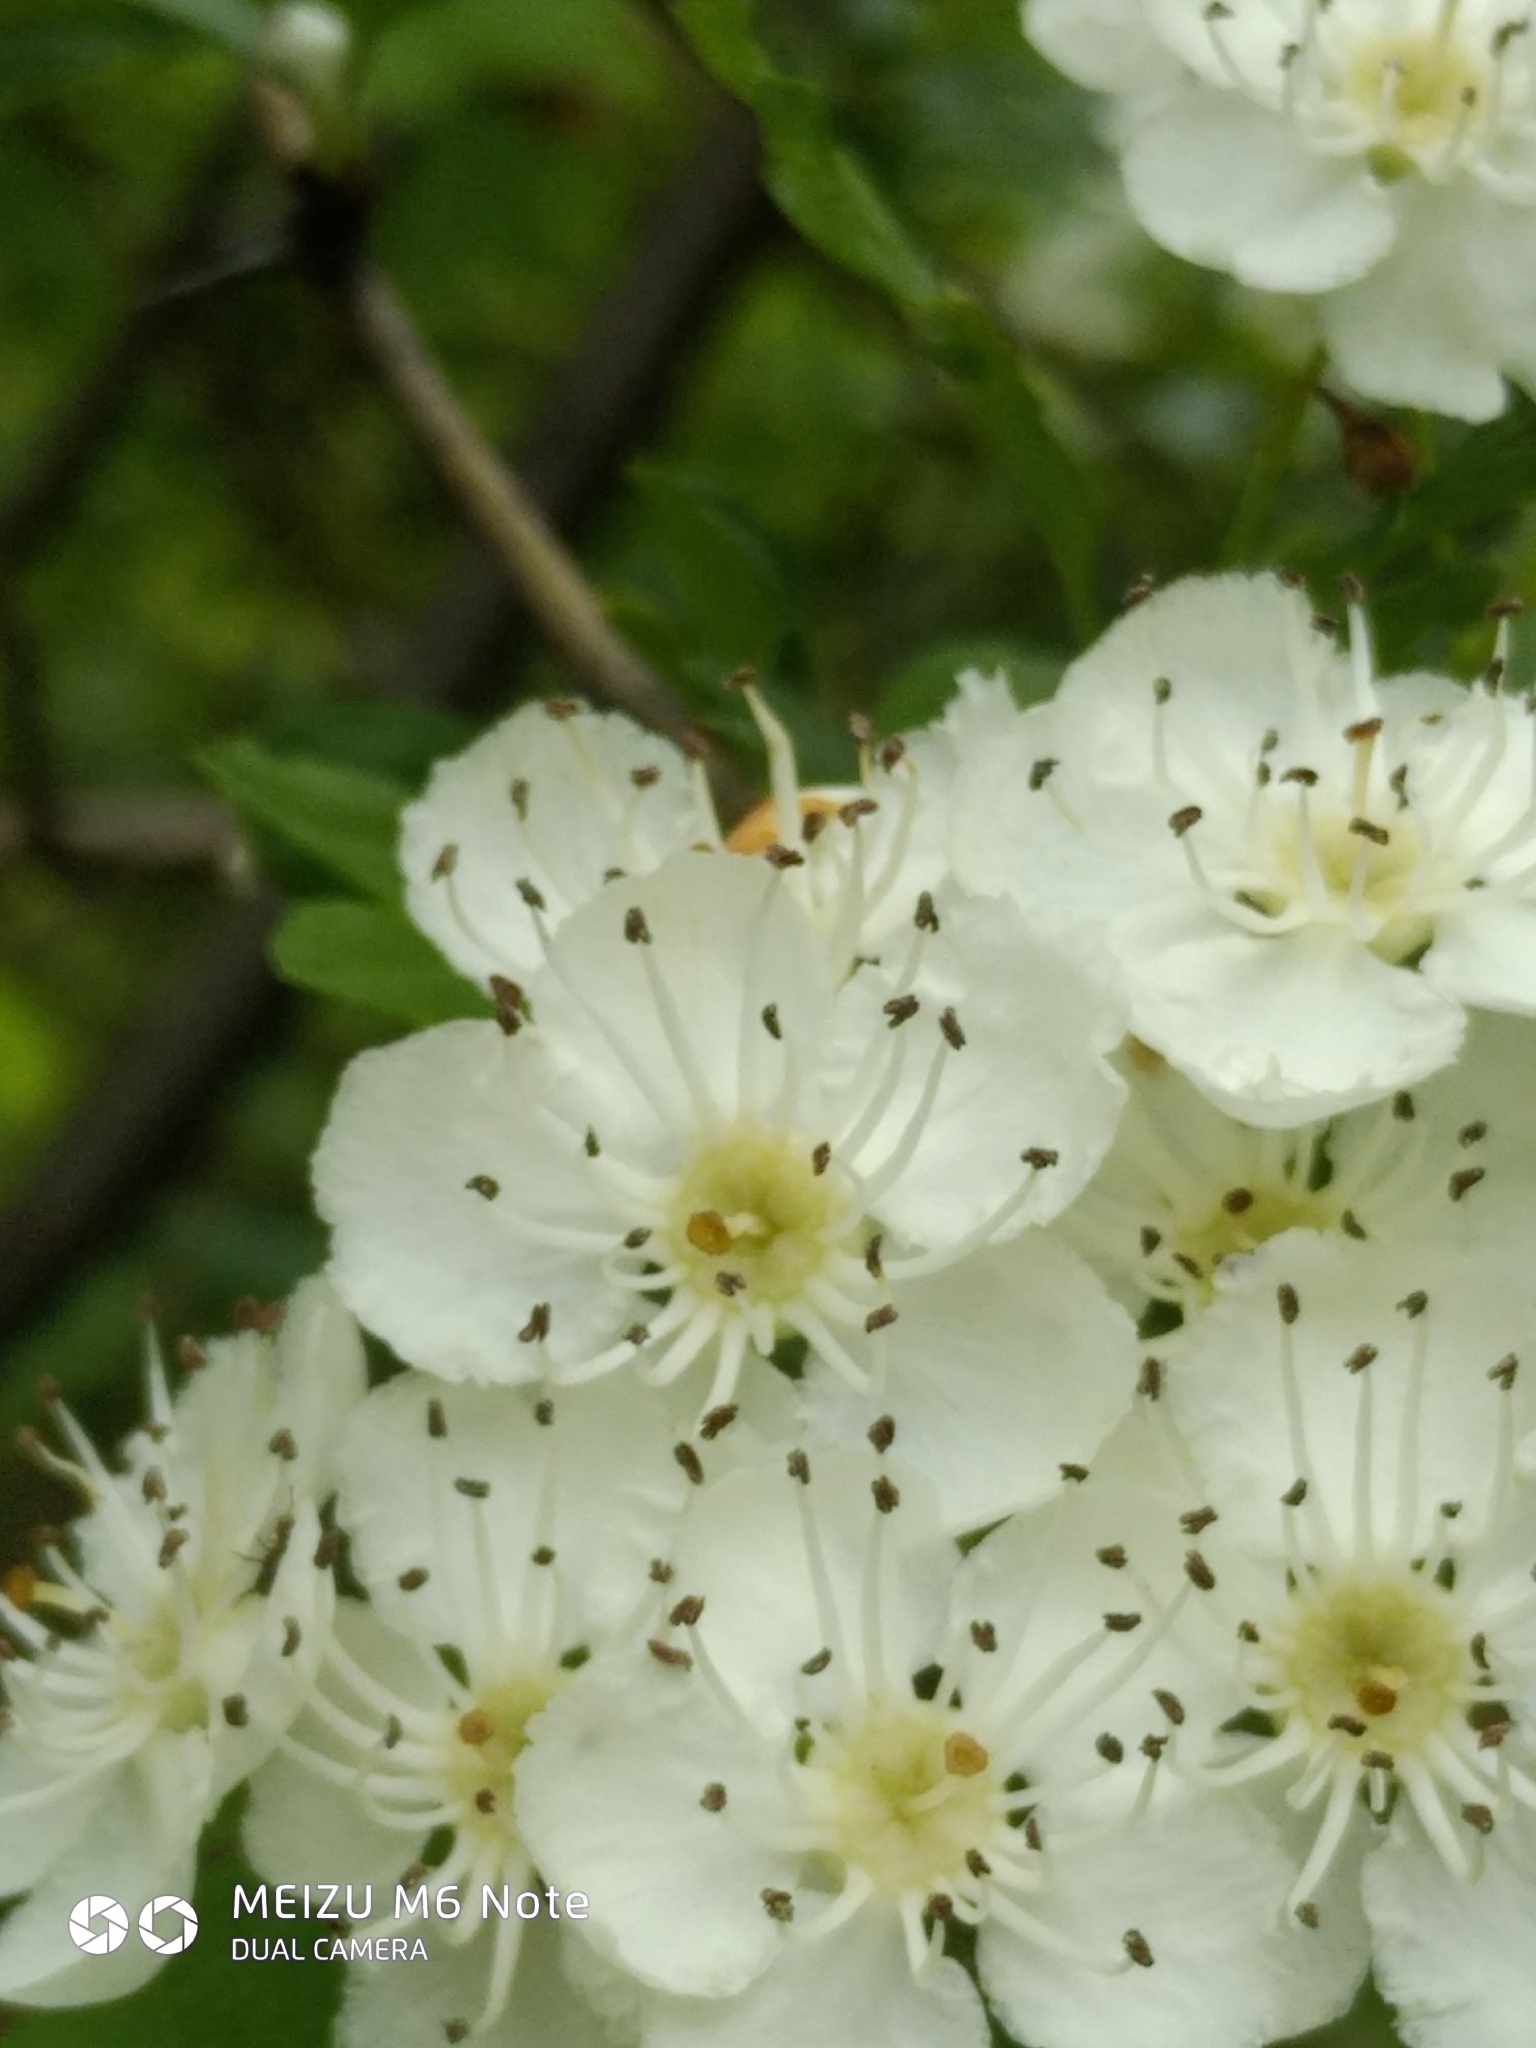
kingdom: Plantae
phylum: Tracheophyta
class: Magnoliopsida
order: Rosales
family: Rosaceae
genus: Crataegus
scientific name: Crataegus monogyna
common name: Hawthorn
